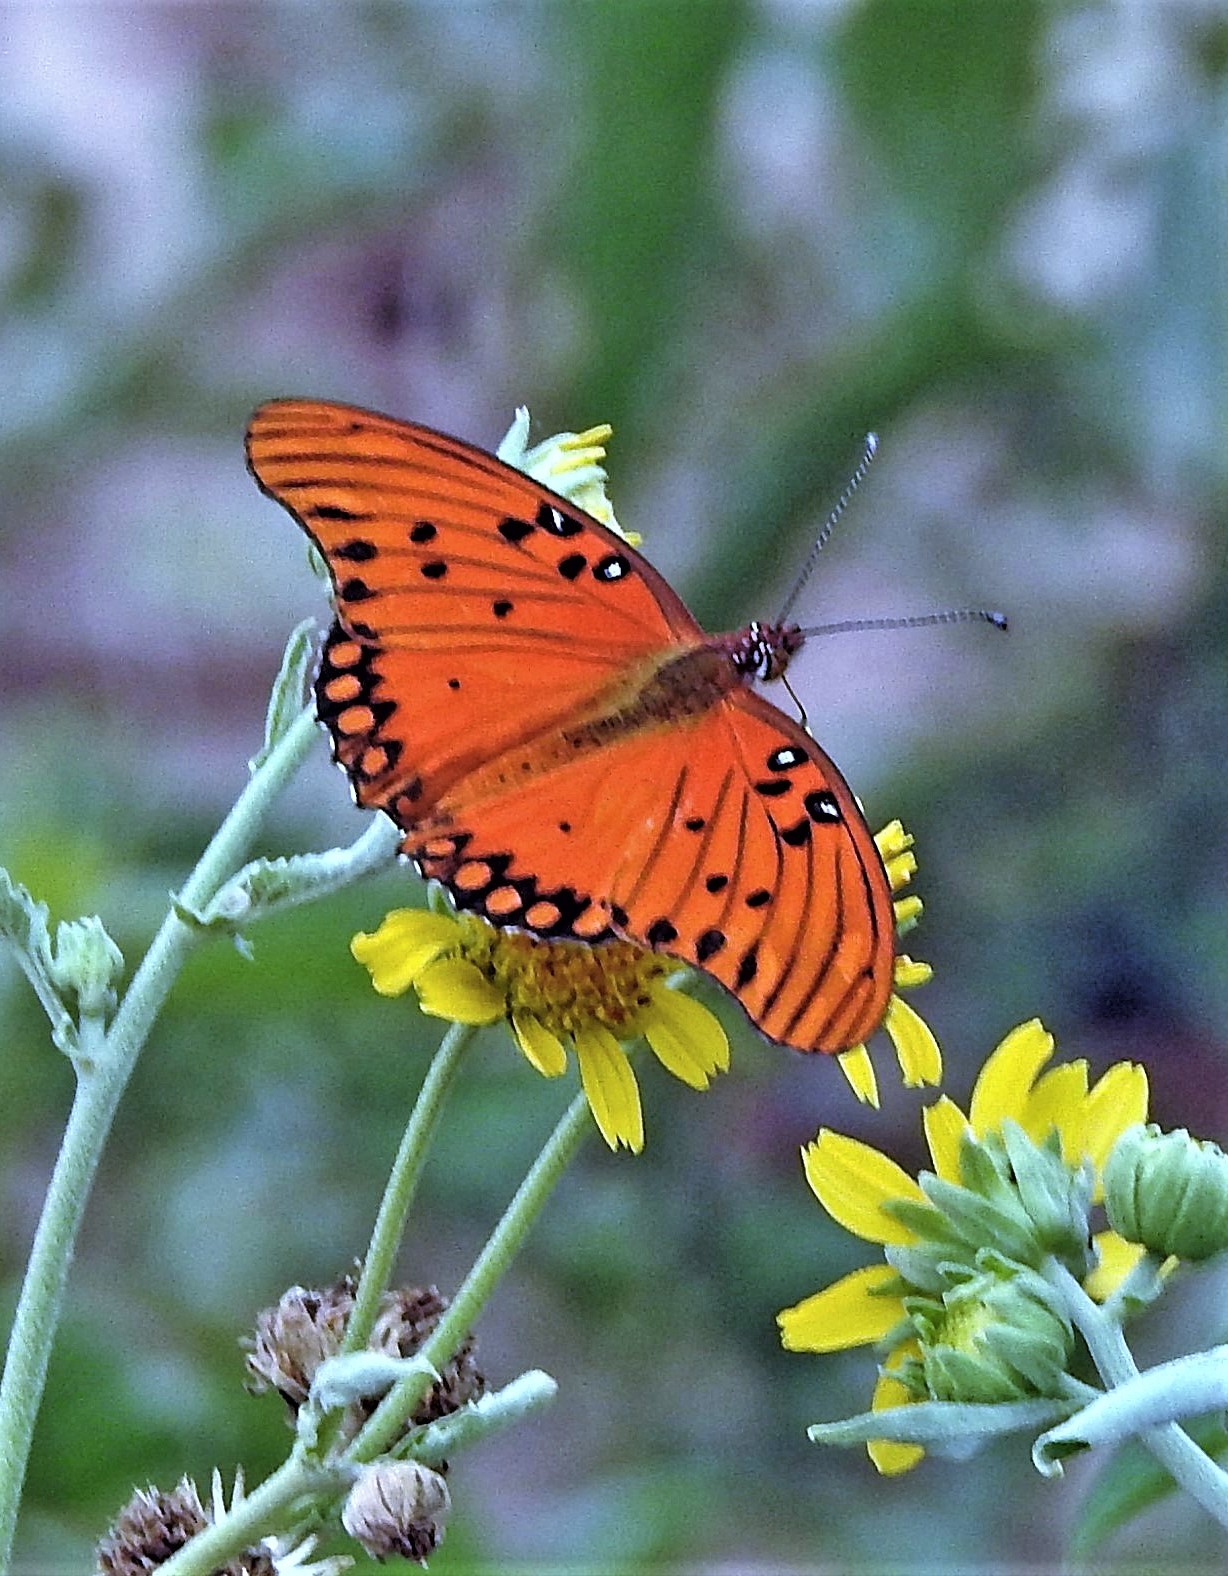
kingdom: Animalia
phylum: Arthropoda
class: Insecta
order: Lepidoptera
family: Nymphalidae
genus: Dione
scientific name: Dione vanillae
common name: Gulf fritillary
